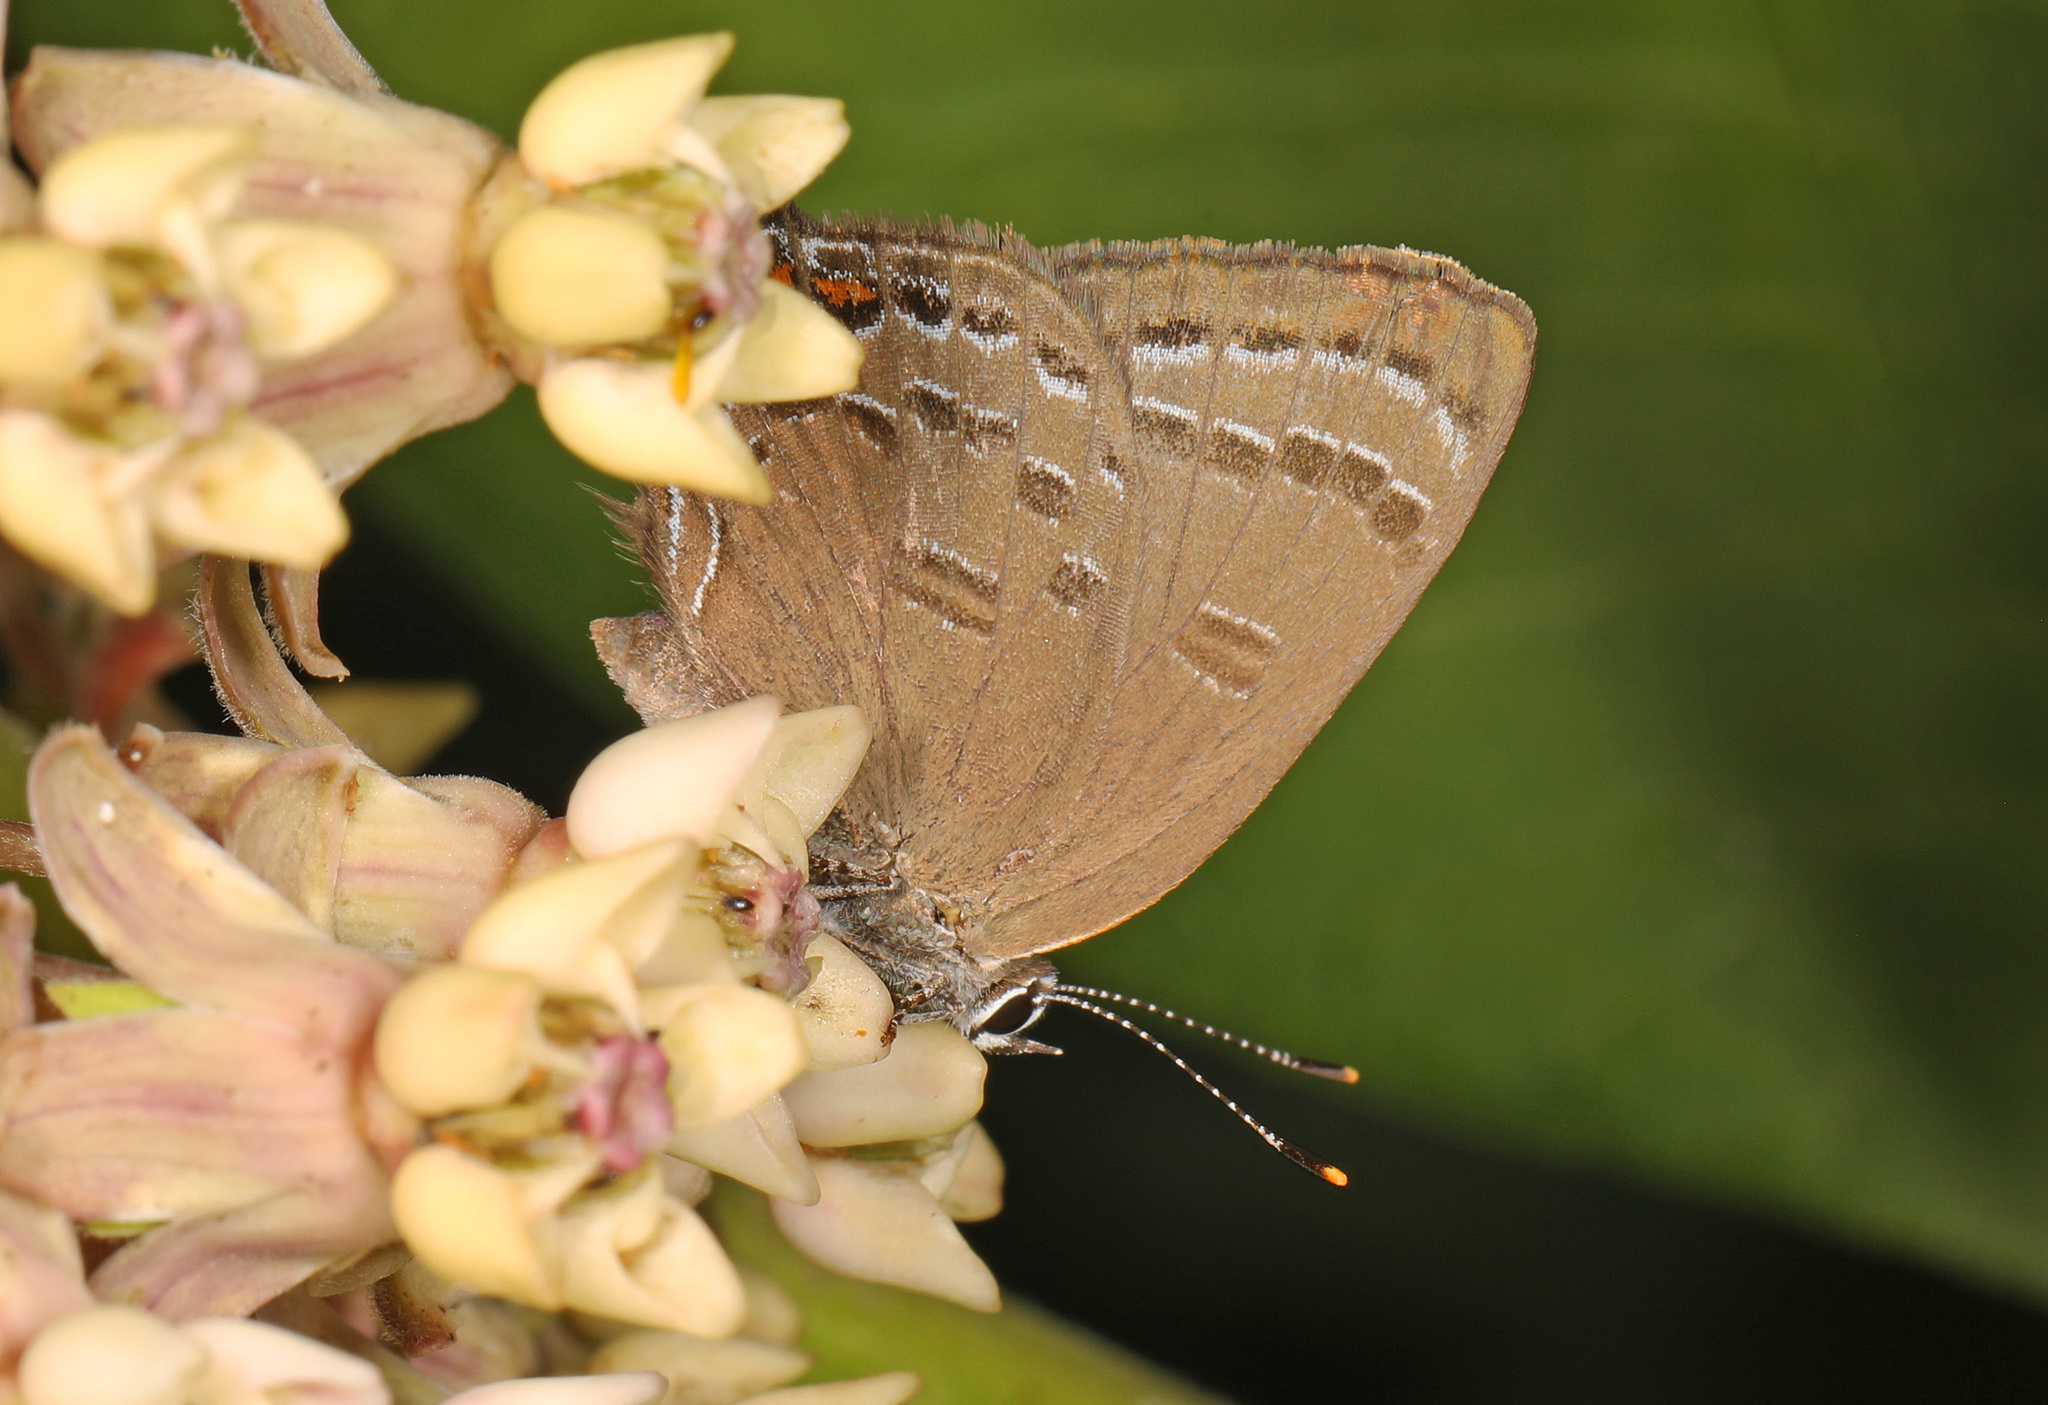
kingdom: Animalia
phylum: Arthropoda
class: Insecta
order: Lepidoptera
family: Lycaenidae
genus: Satyrium
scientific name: Satyrium calanus
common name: Banded hairstreak
